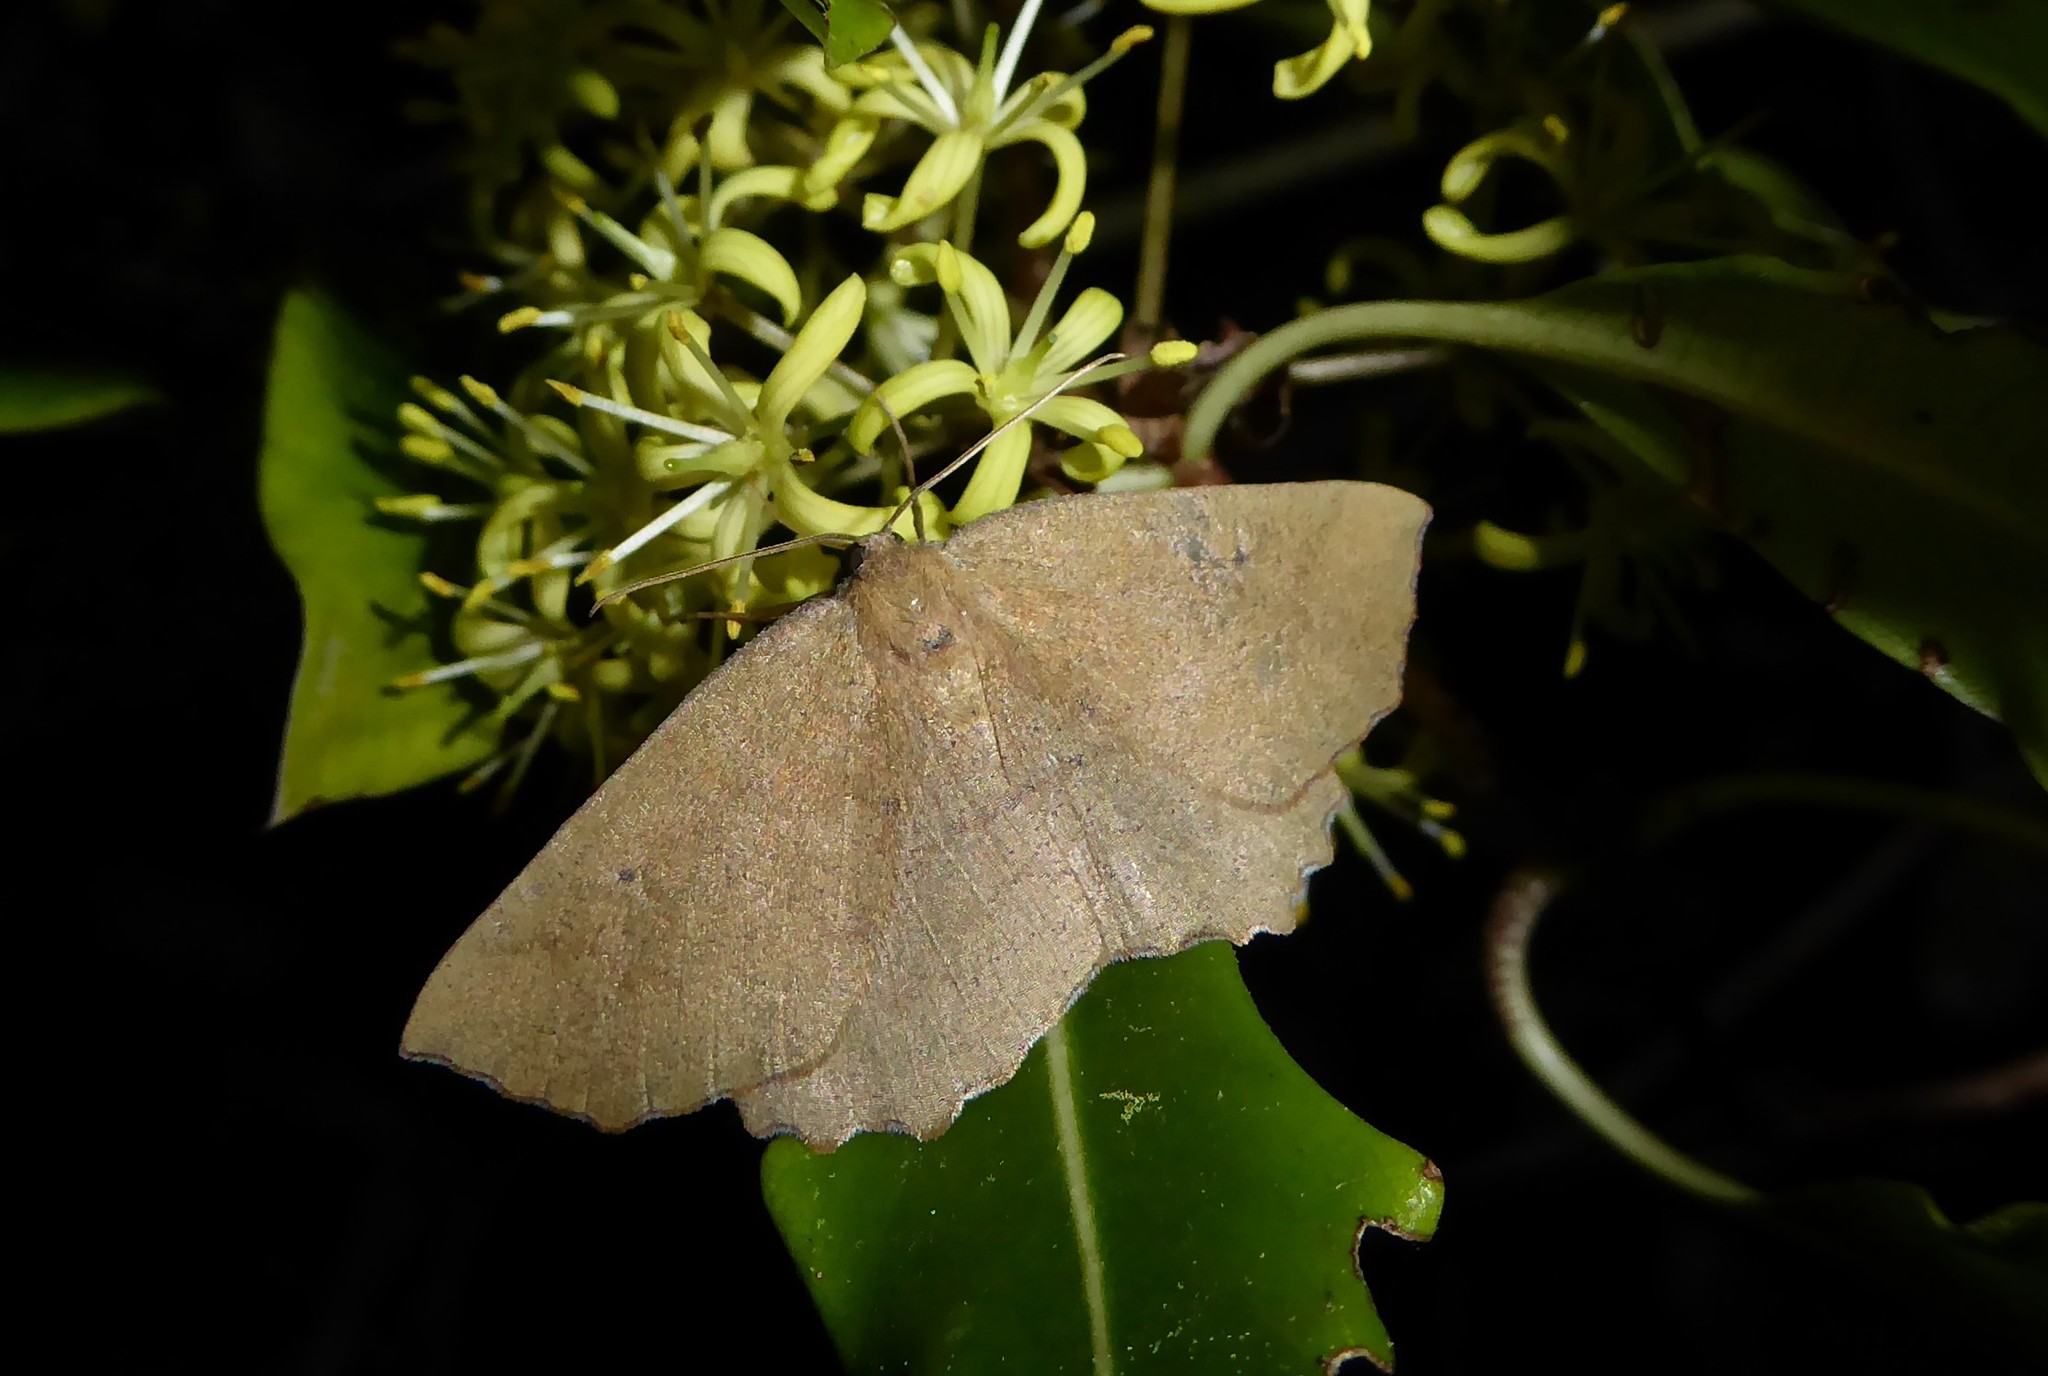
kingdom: Animalia
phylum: Arthropoda
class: Insecta
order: Lepidoptera
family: Geometridae
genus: Xyridacma
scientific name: Xyridacma ustaria
